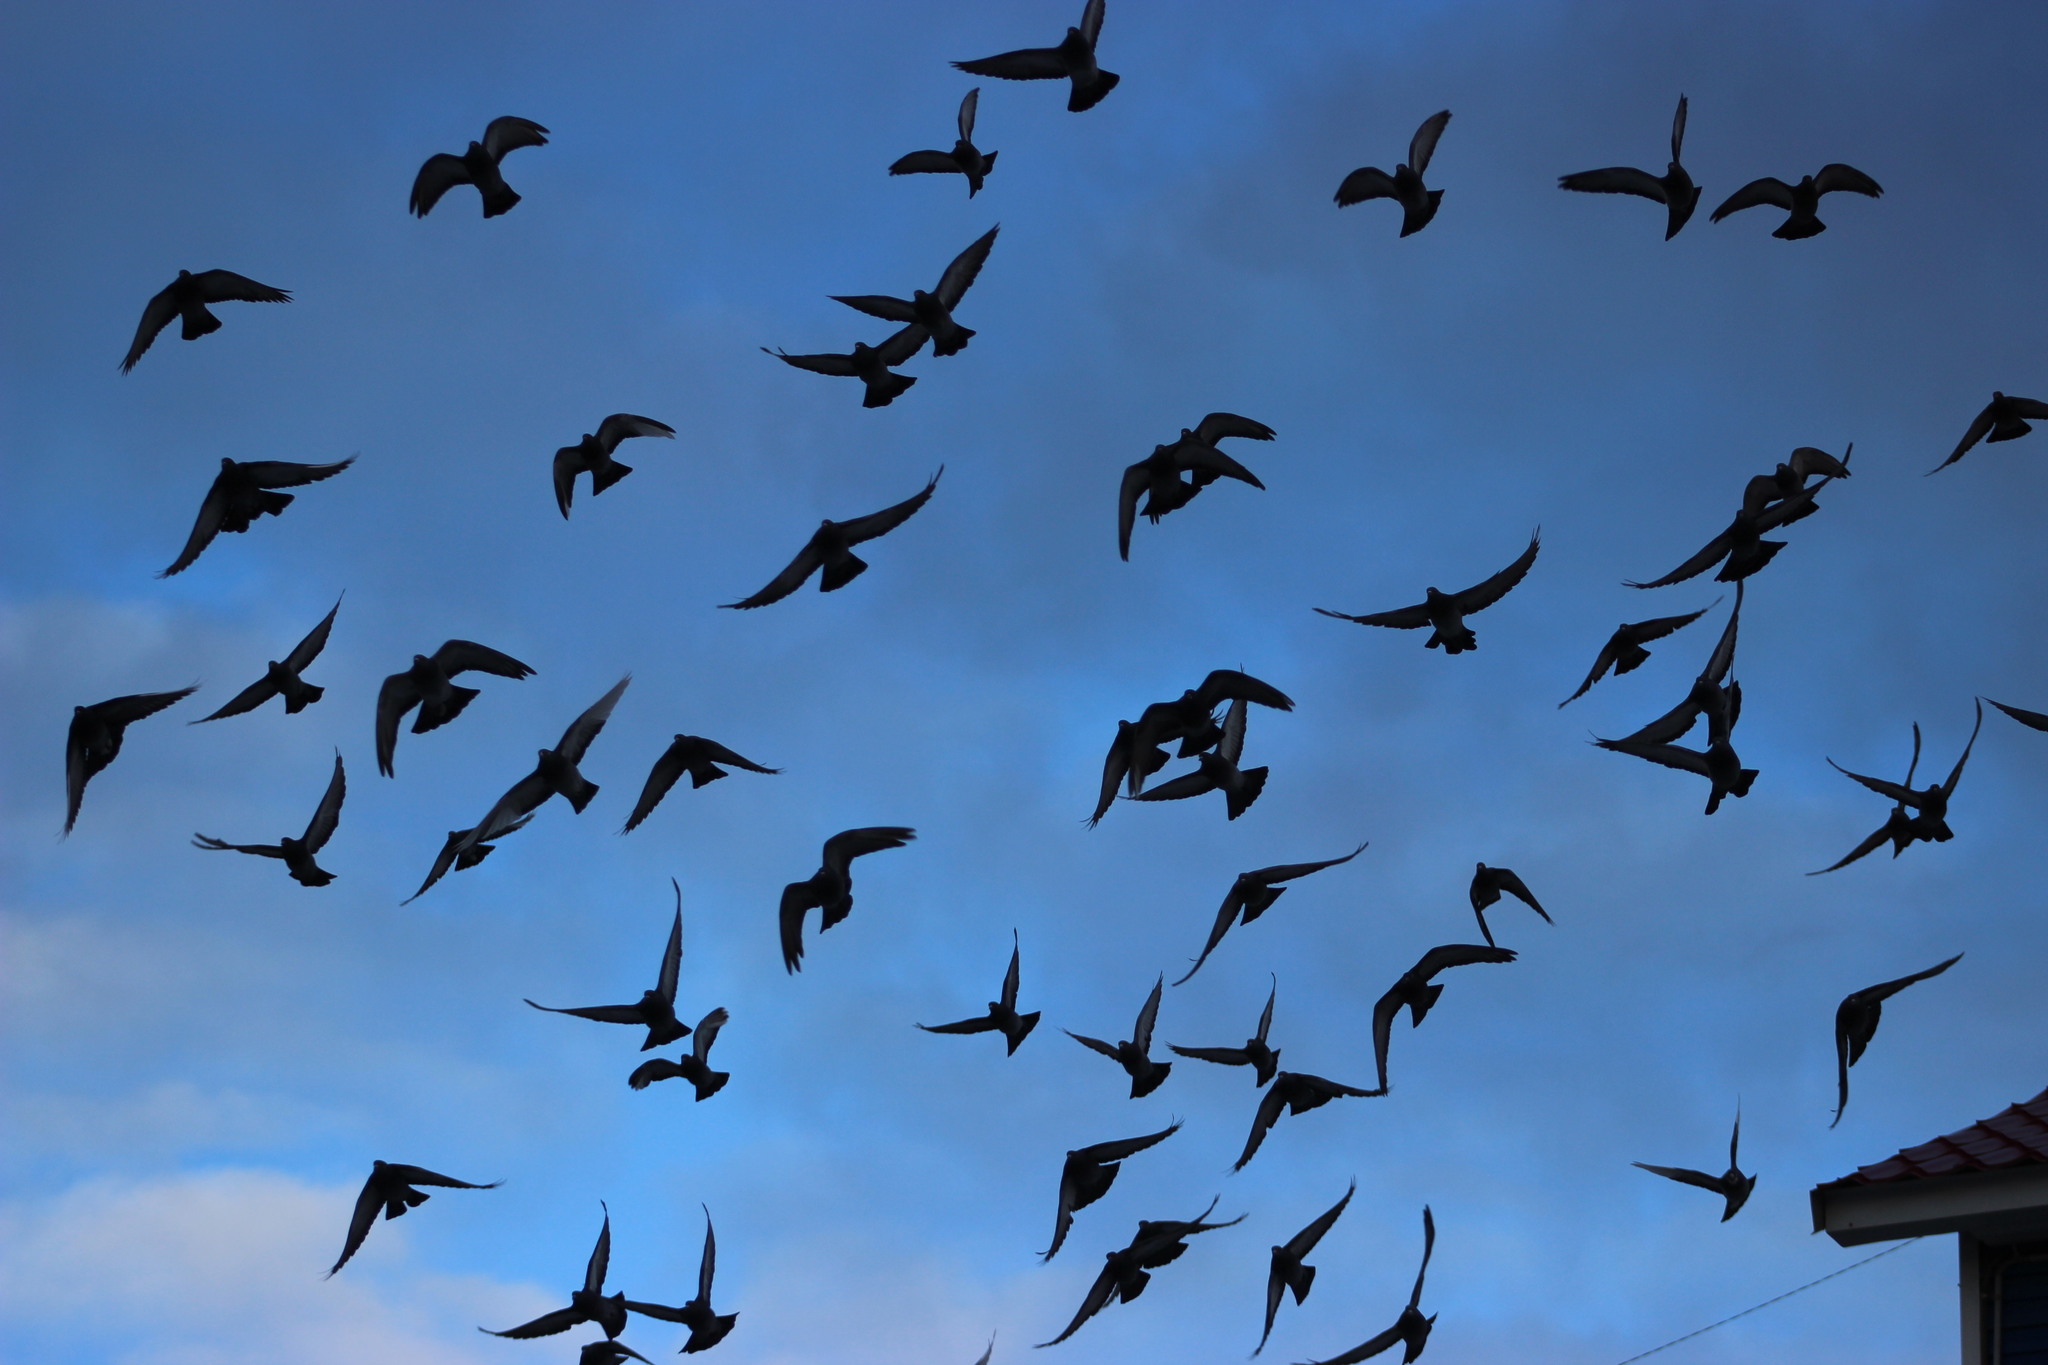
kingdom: Animalia
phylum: Chordata
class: Aves
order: Columbiformes
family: Columbidae
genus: Columba
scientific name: Columba livia
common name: Rock pigeon
